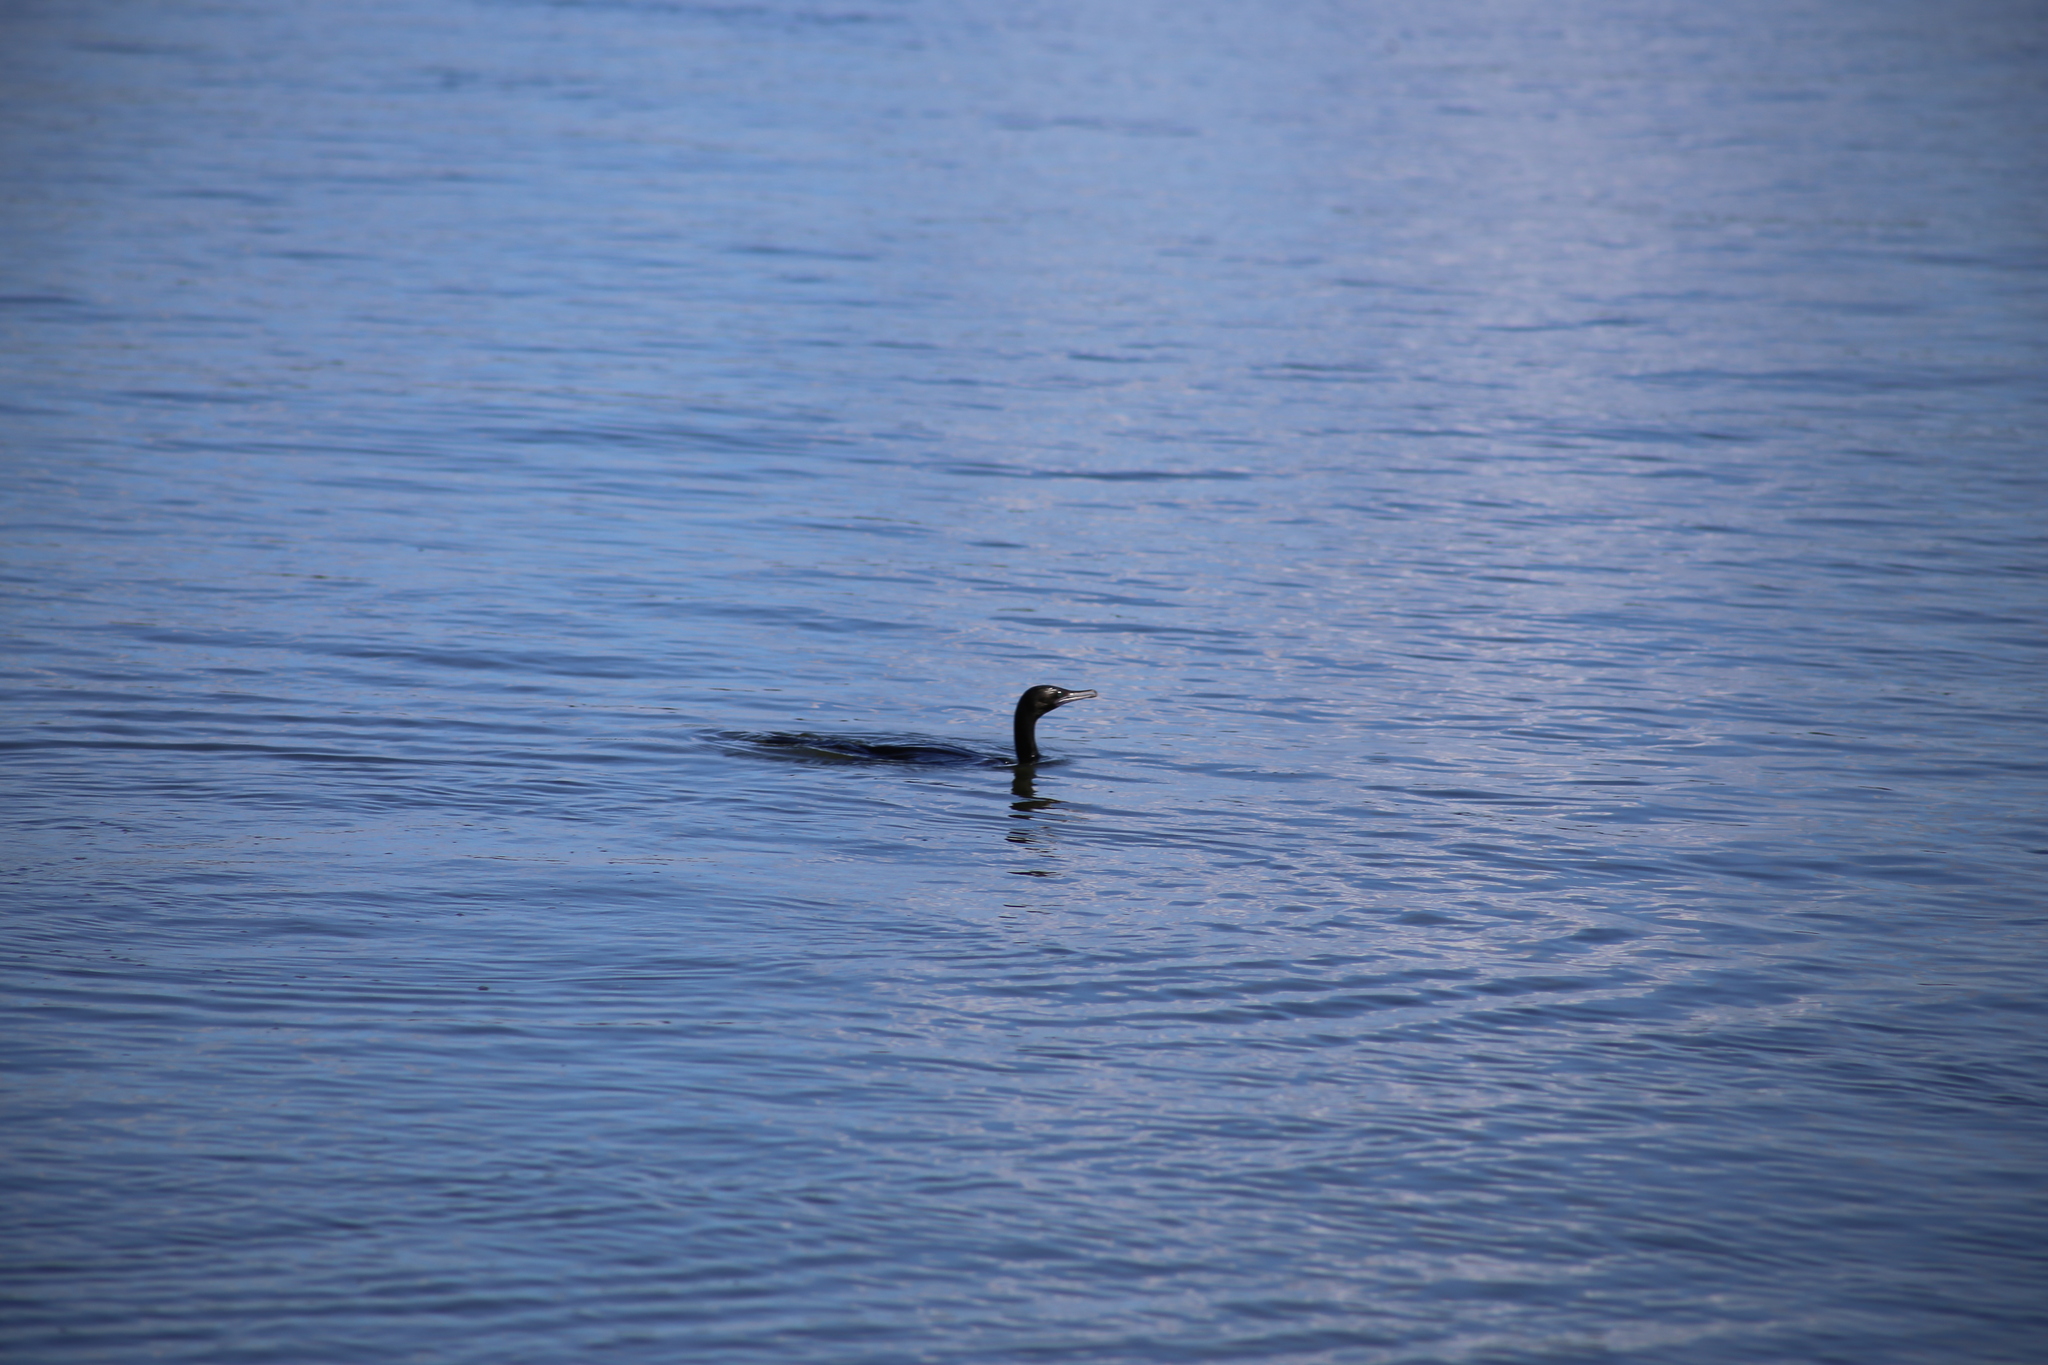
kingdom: Animalia
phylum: Chordata
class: Aves
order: Suliformes
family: Phalacrocoracidae
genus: Phalacrocorax
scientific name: Phalacrocorax sulcirostris
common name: Little black cormorant
